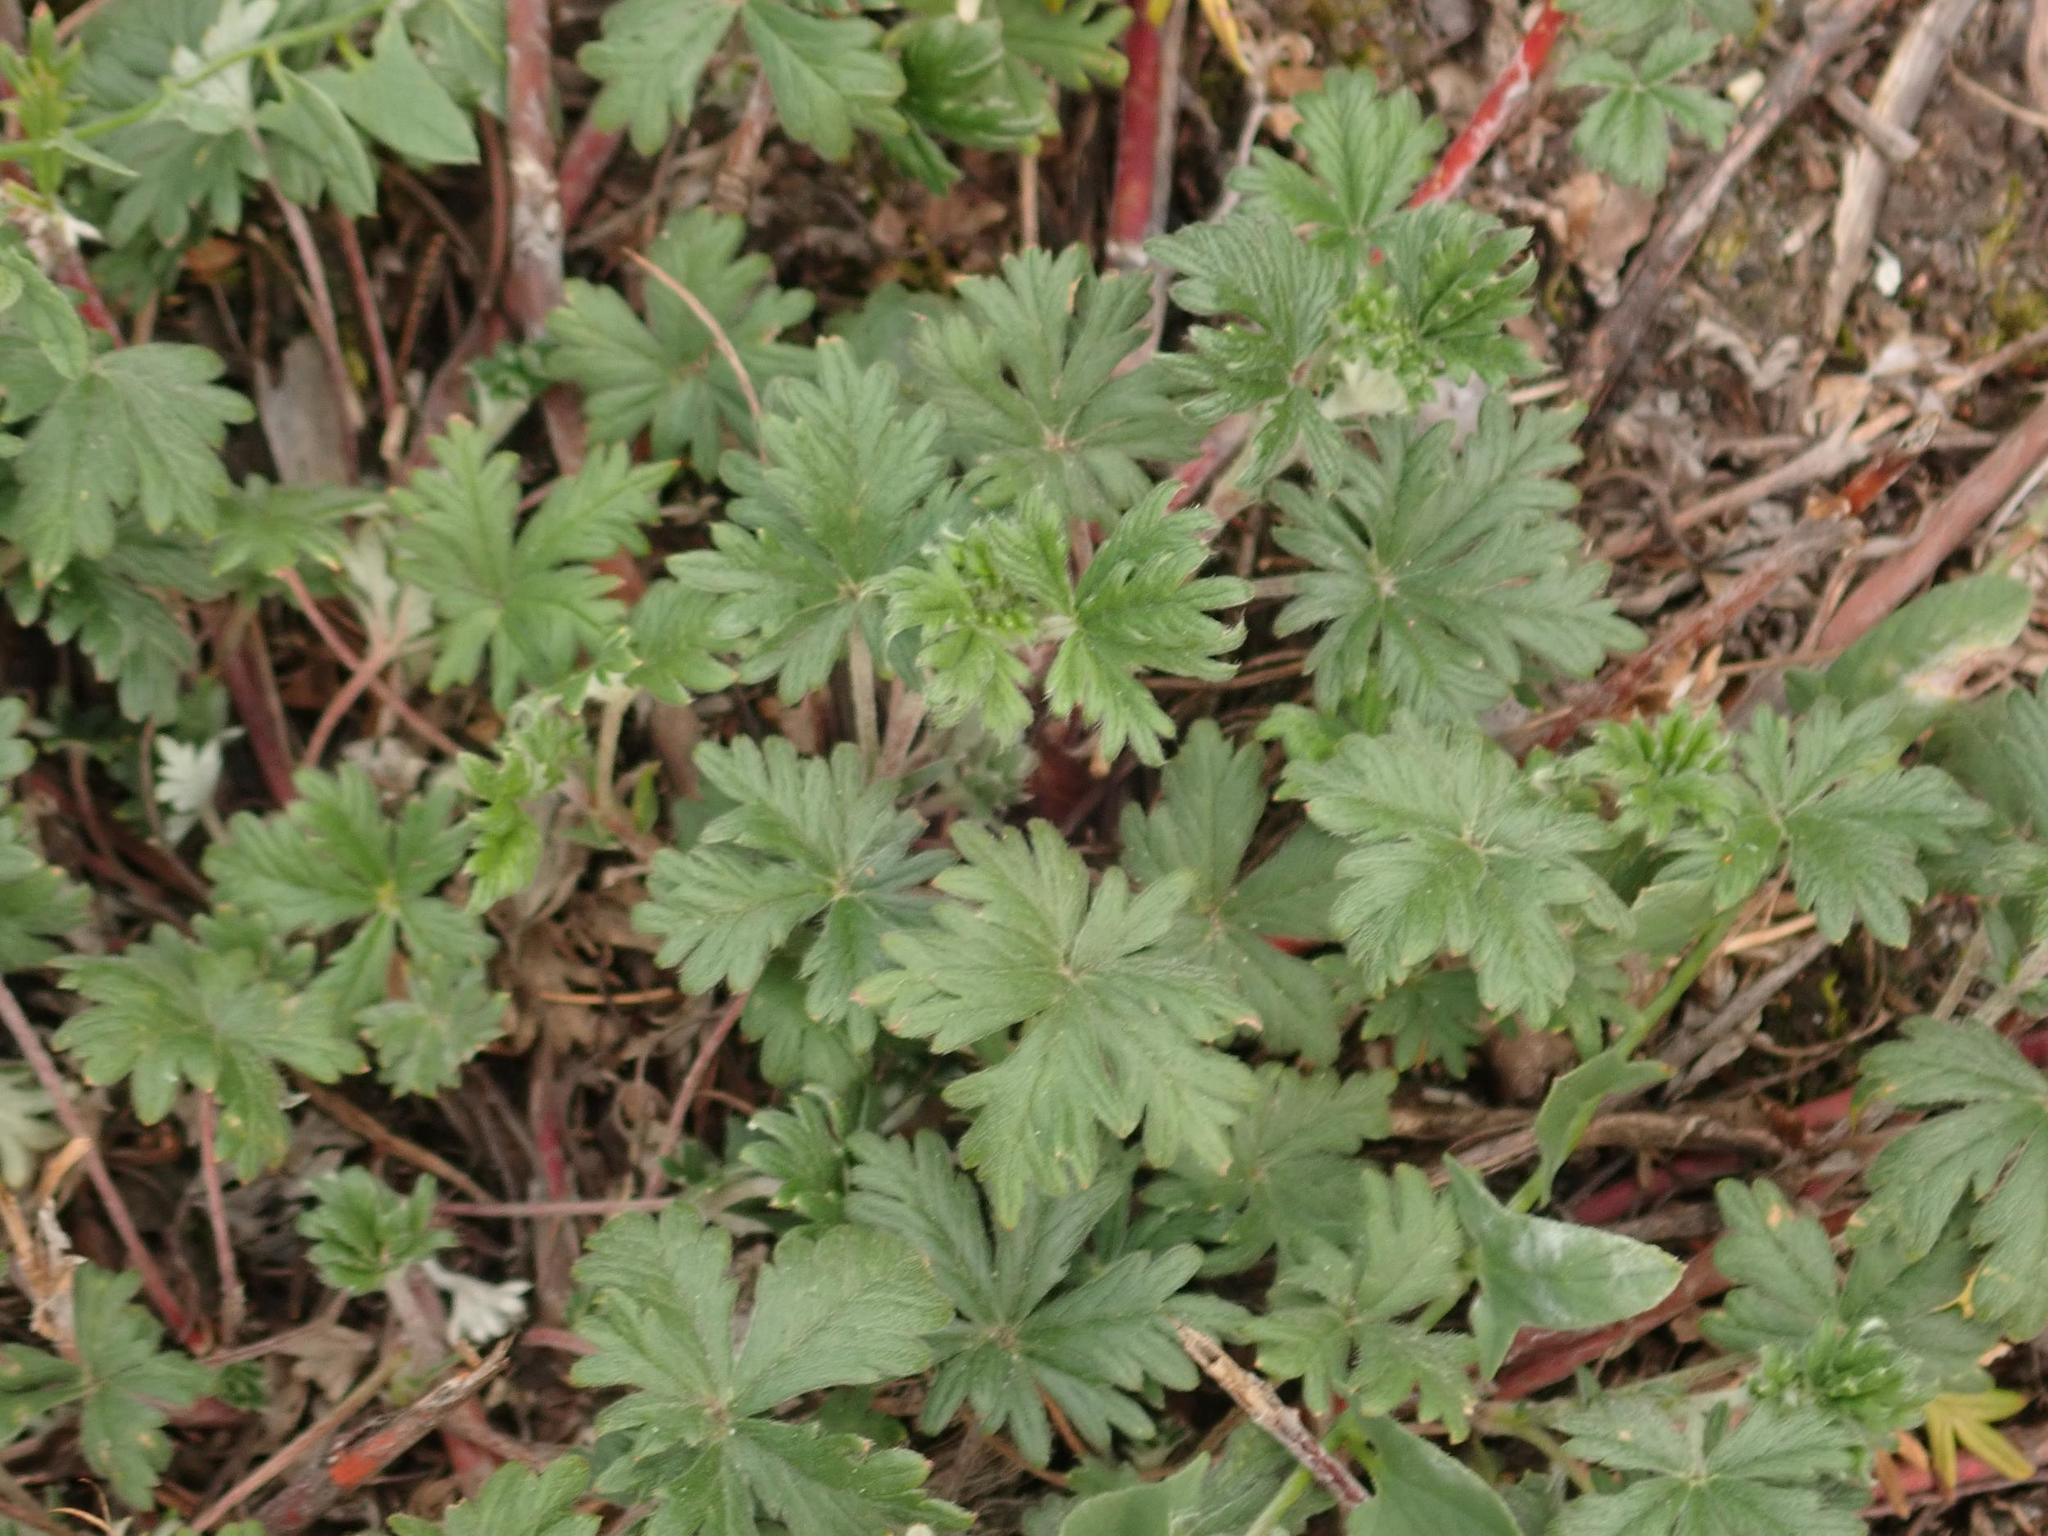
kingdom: Plantae
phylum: Tracheophyta
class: Magnoliopsida
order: Rosales
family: Rosaceae
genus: Potentilla
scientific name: Potentilla argentea
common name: Hoary cinquefoil
